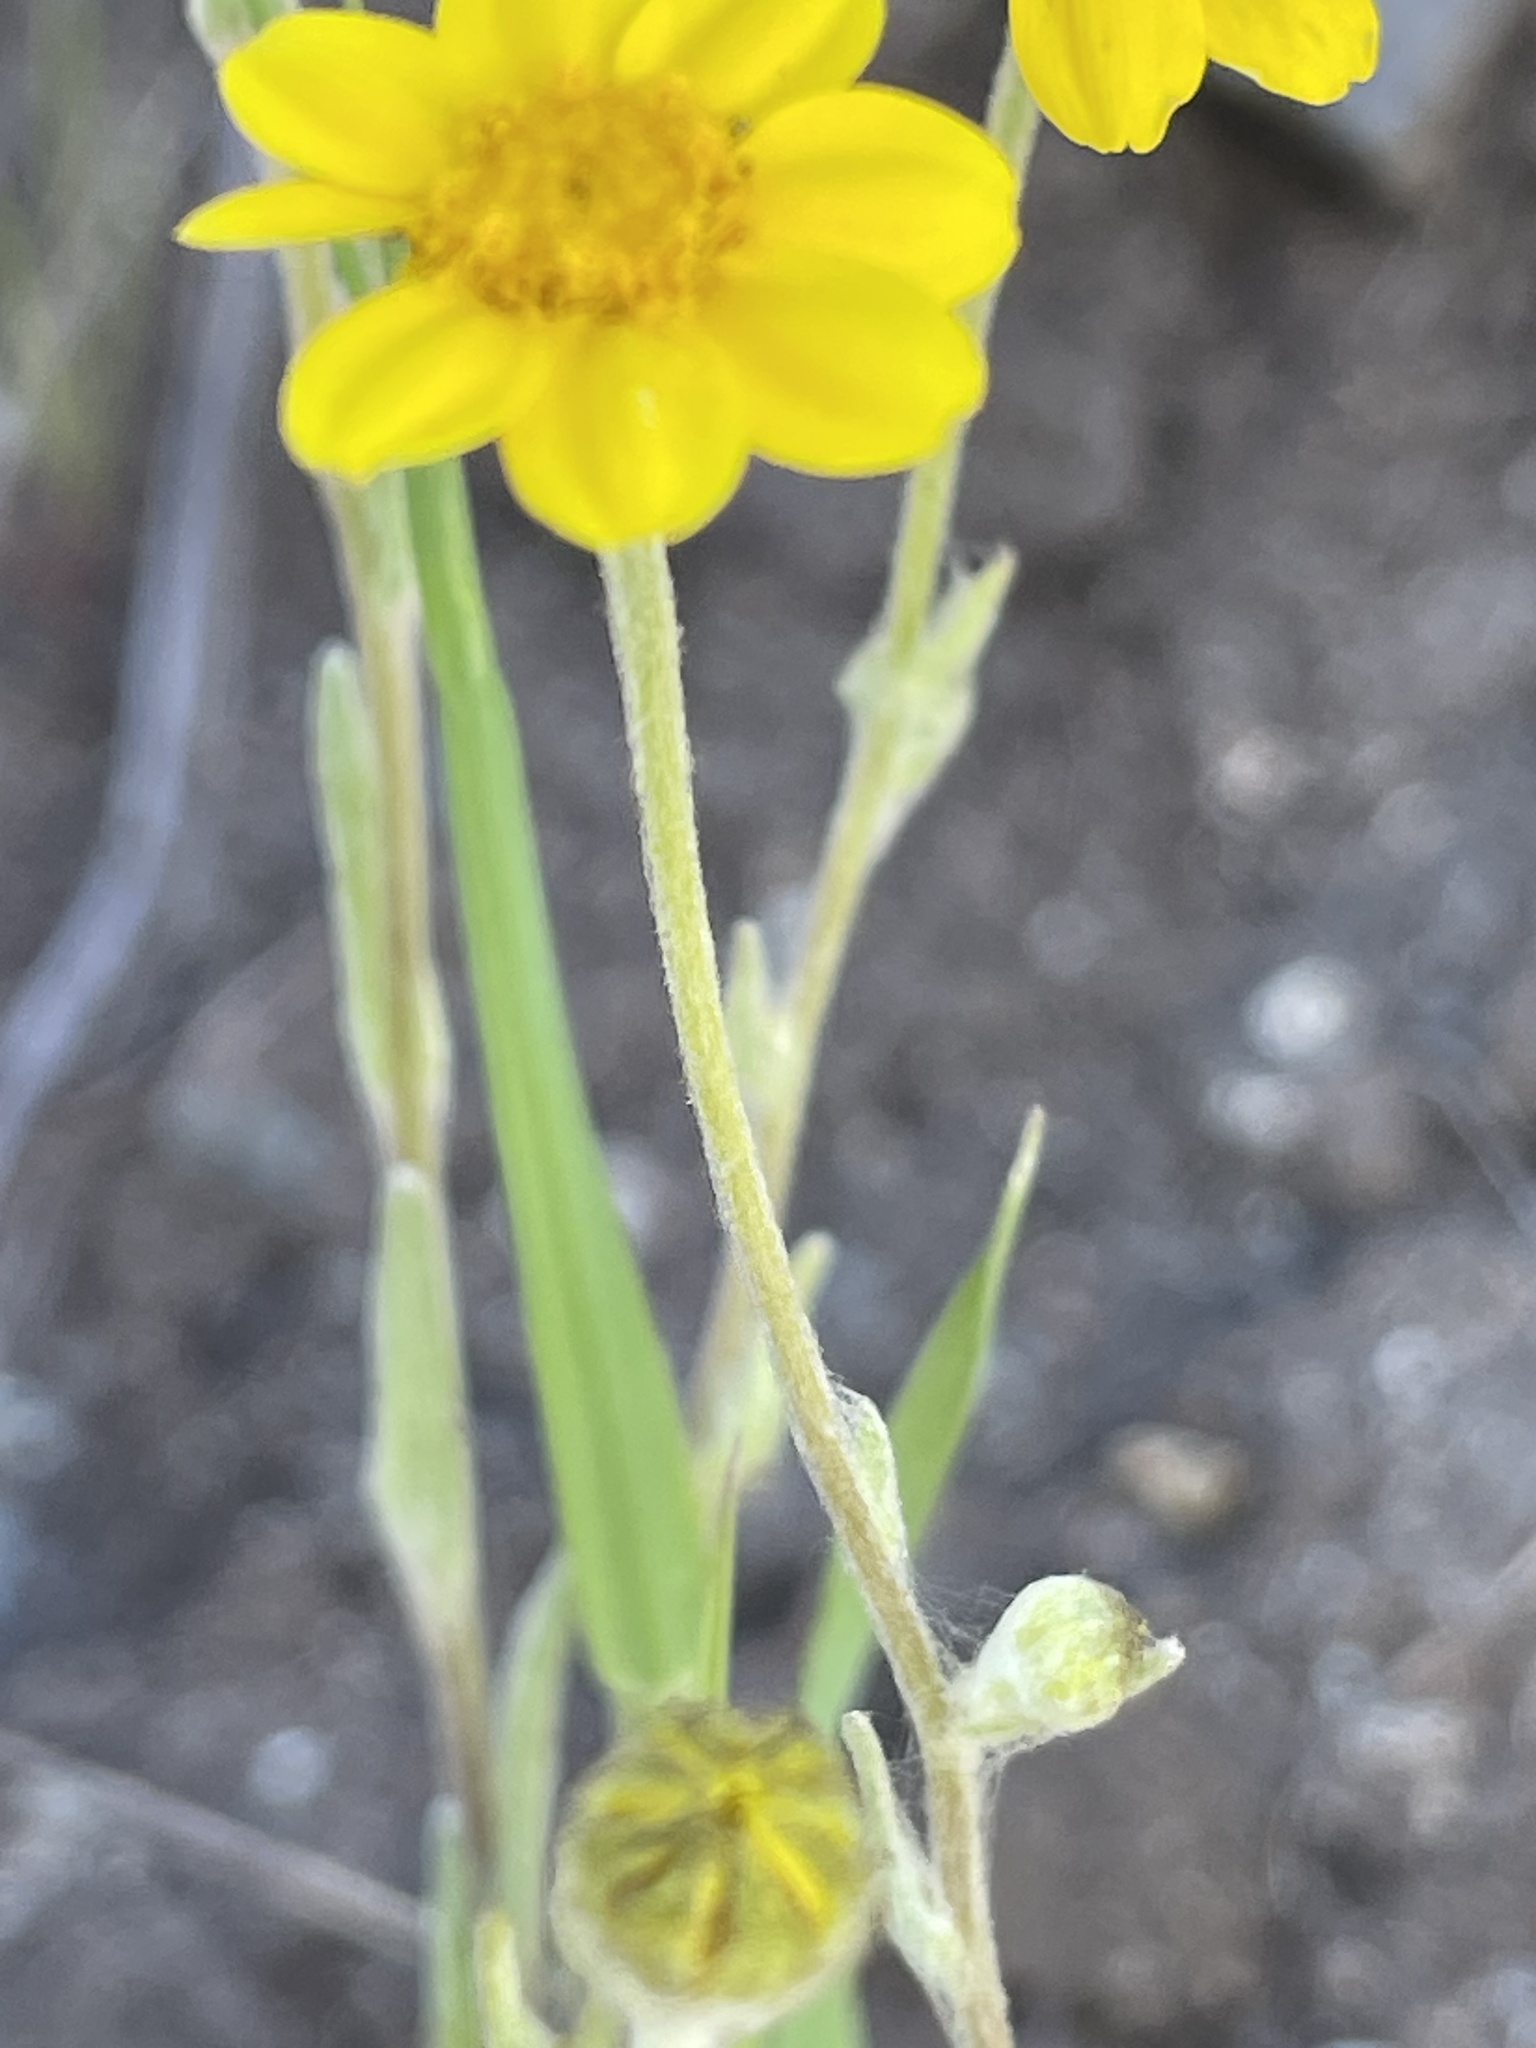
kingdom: Plantae
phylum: Tracheophyta
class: Magnoliopsida
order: Asterales
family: Asteraceae
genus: Monolopia
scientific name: Monolopia gracilens
